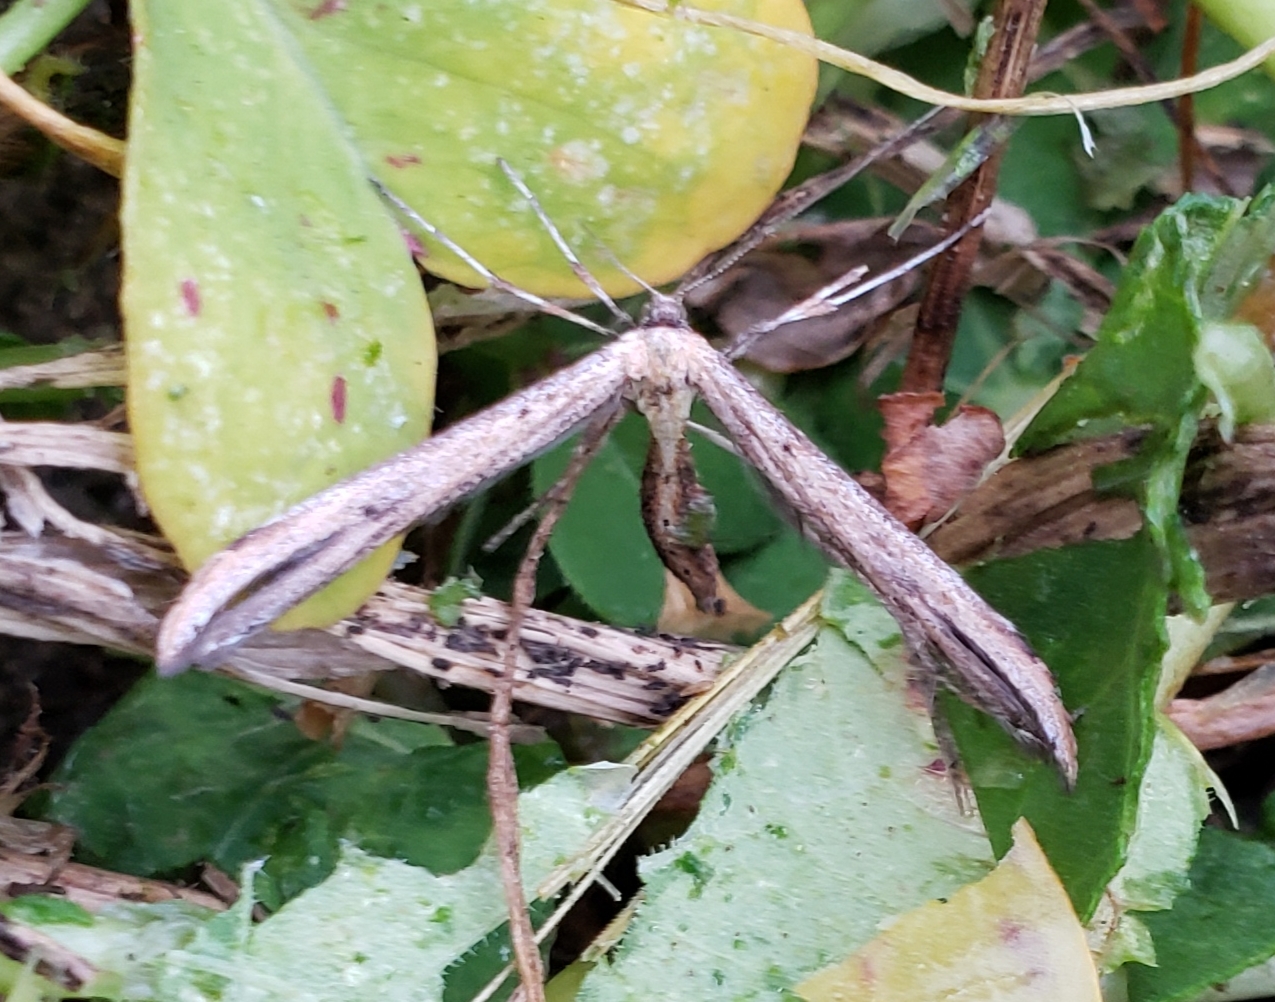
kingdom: Animalia
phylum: Arthropoda
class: Insecta
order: Lepidoptera
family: Pterophoridae
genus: Emmelina
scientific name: Emmelina monodactyla
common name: Common plume
